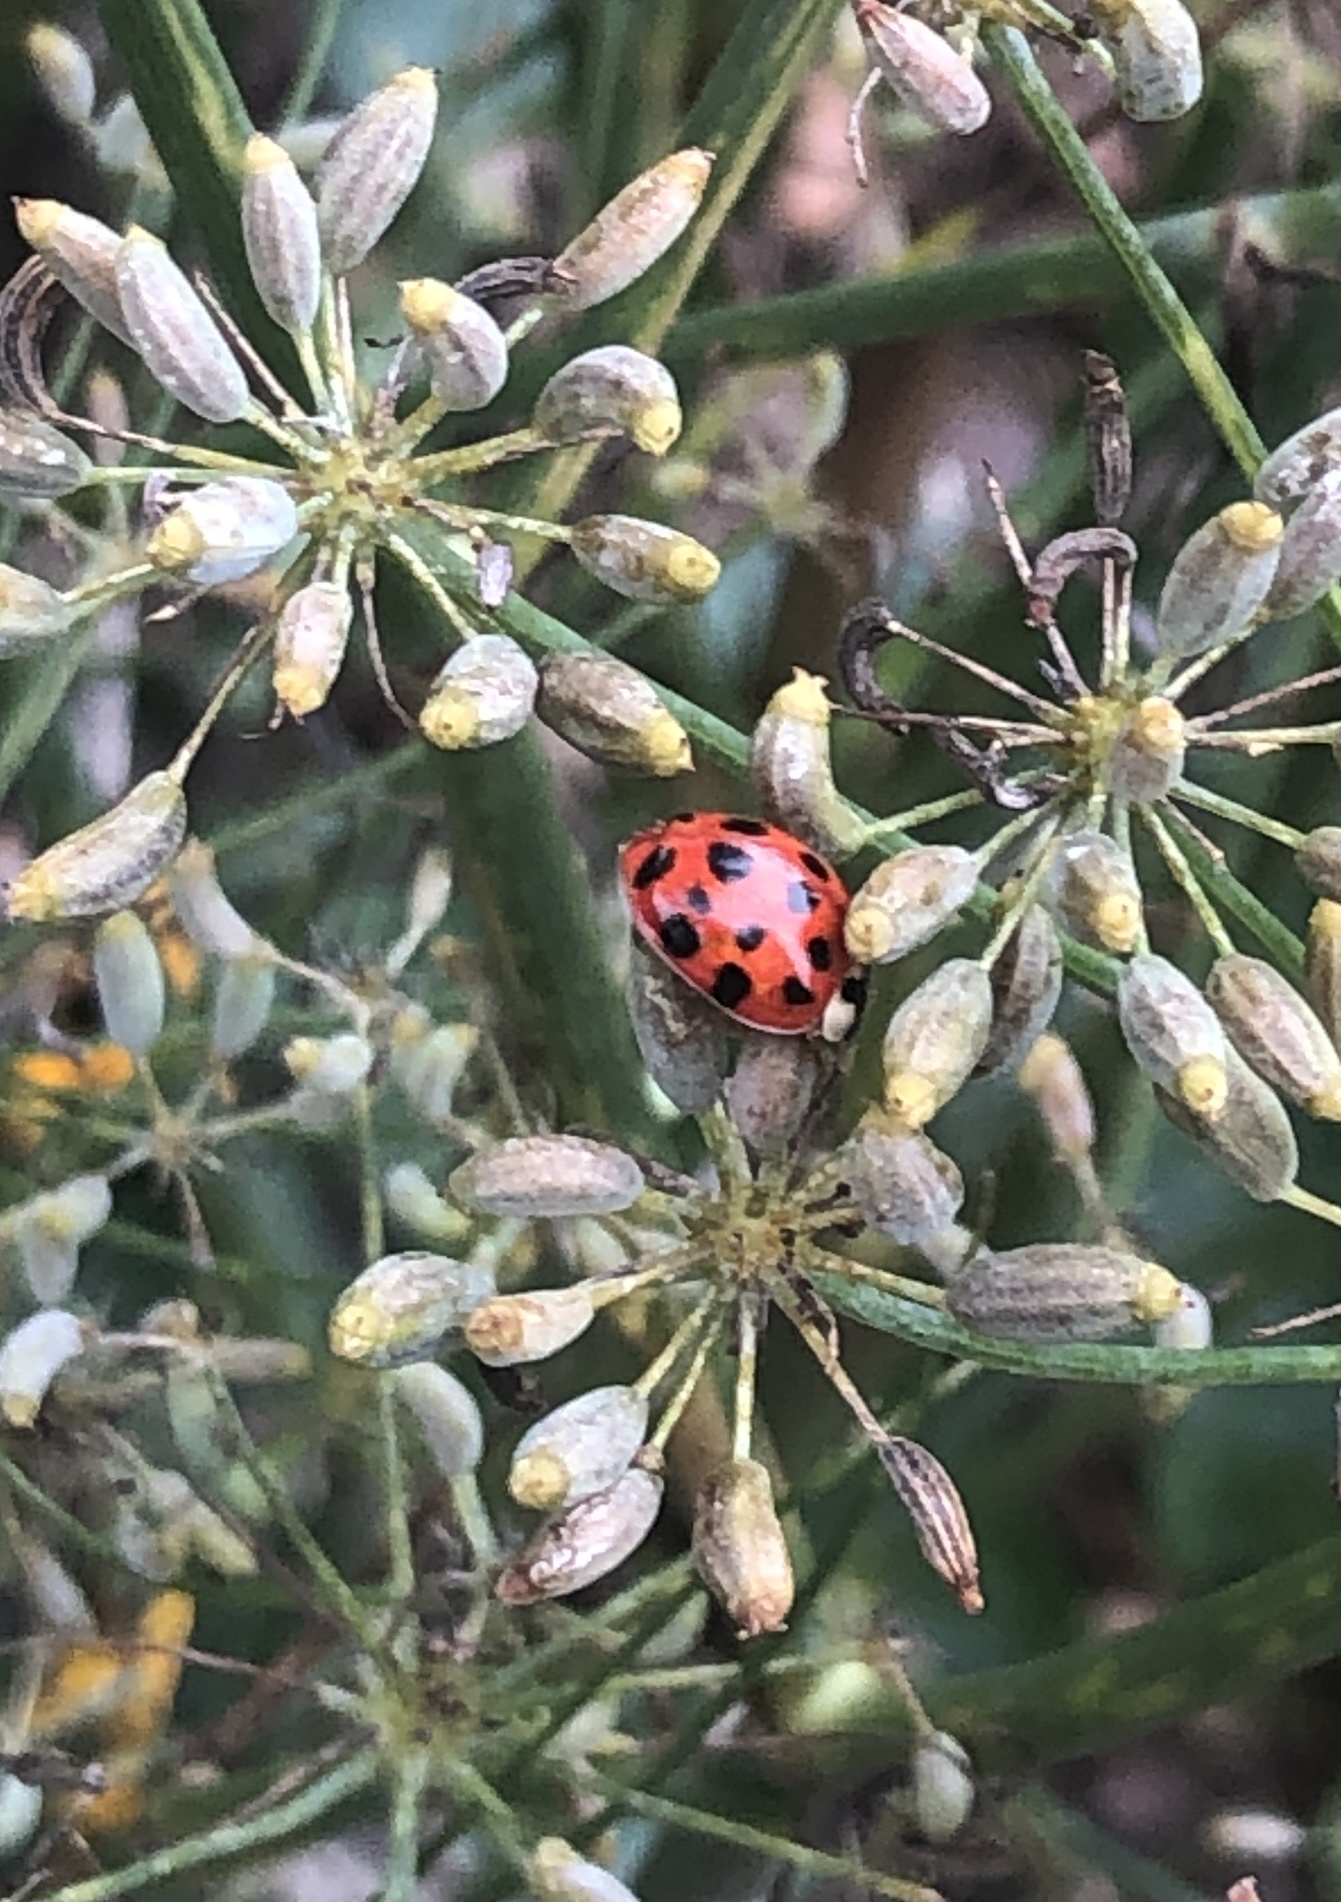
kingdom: Animalia
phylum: Arthropoda
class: Insecta
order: Coleoptera
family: Coccinellidae
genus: Harmonia
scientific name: Harmonia axyridis
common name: Harlequin ladybird
